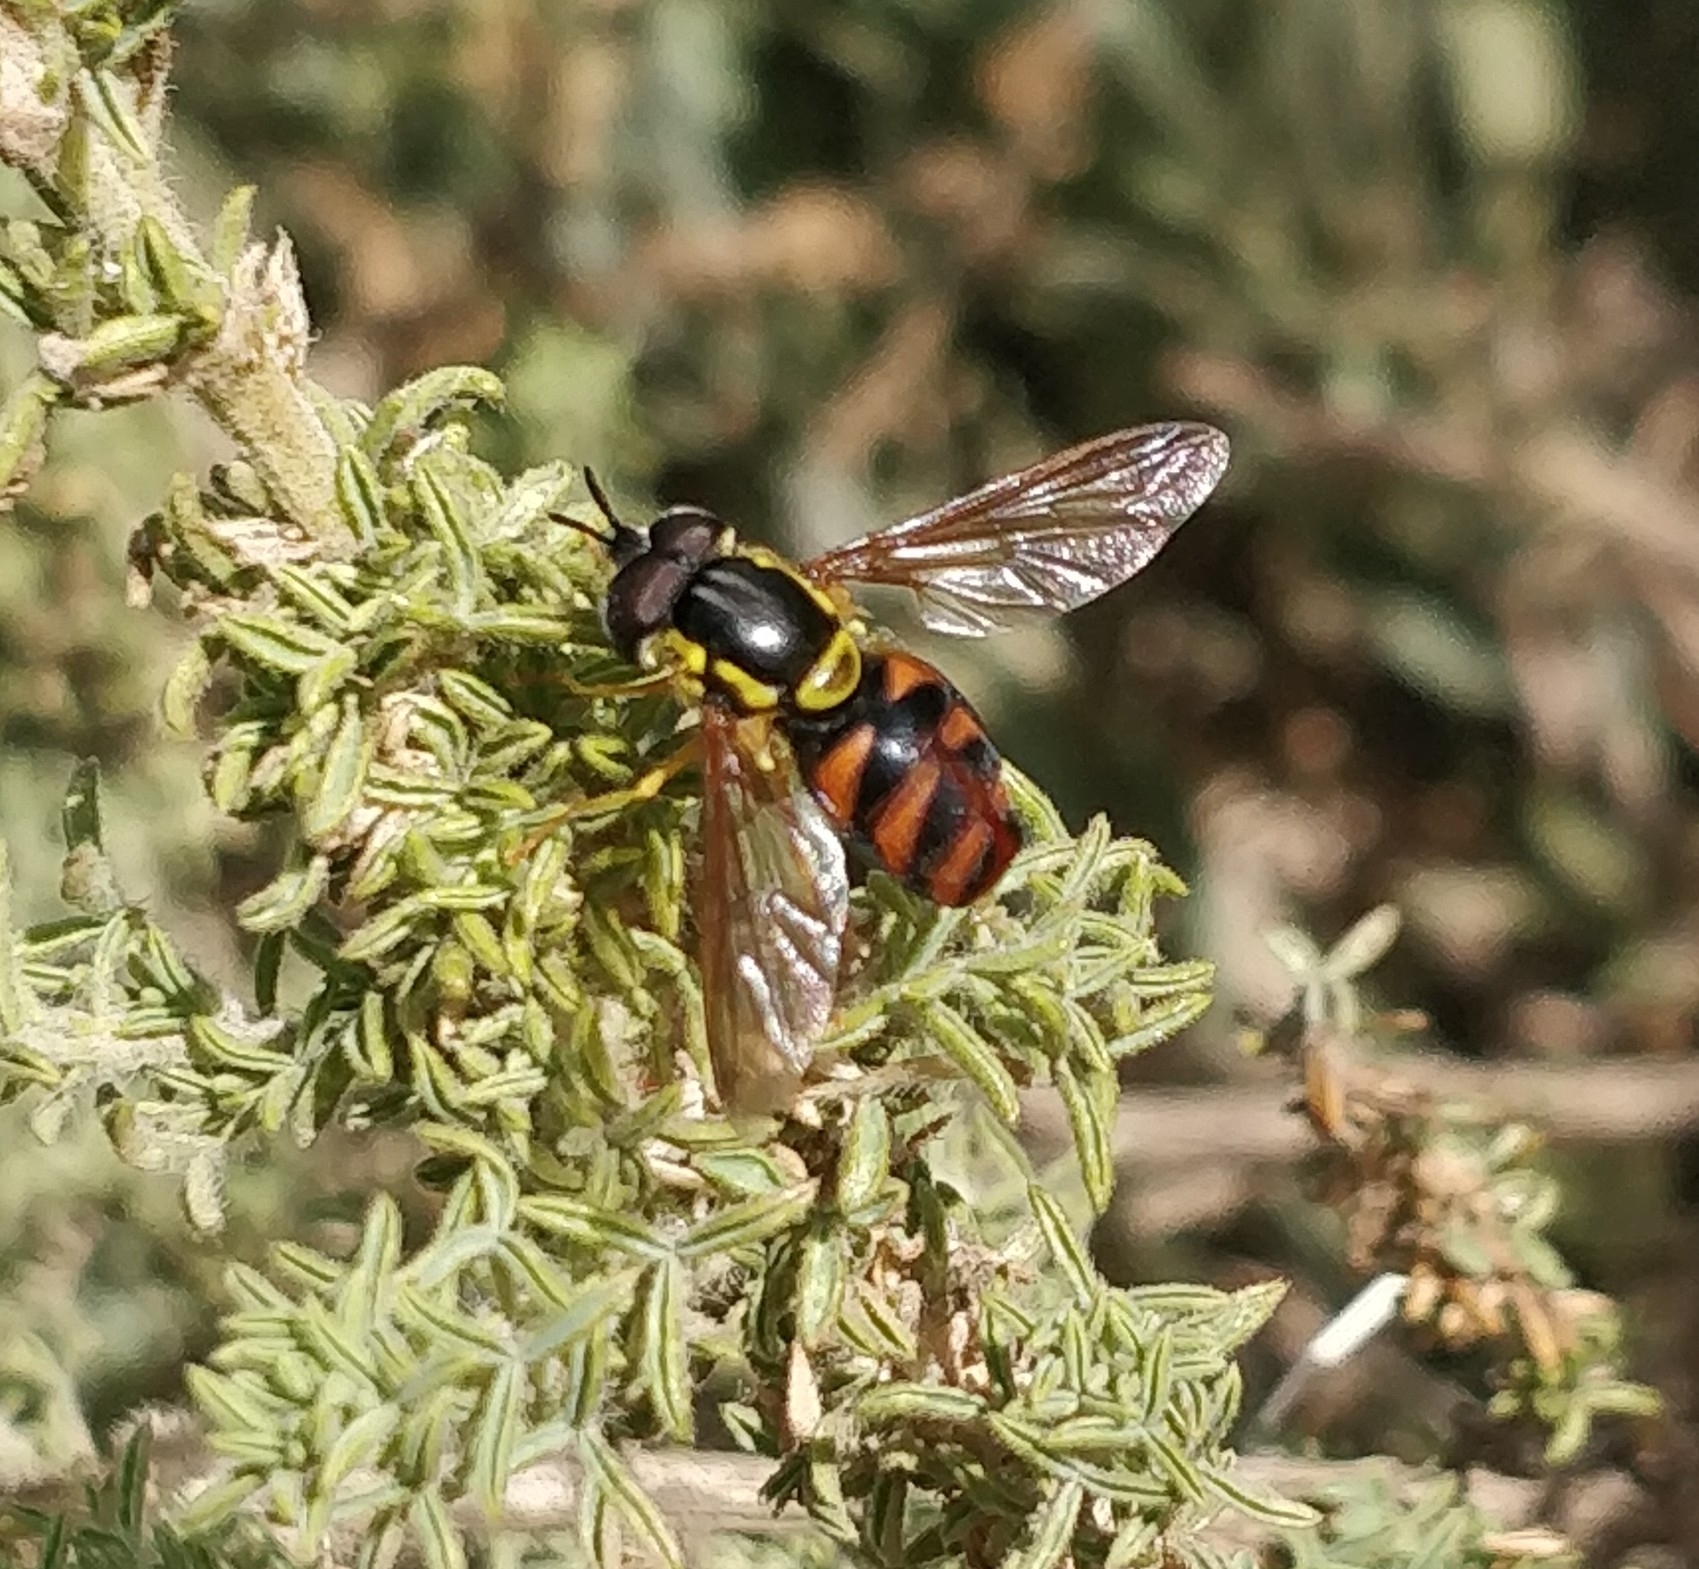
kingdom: Animalia
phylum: Arthropoda
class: Insecta
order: Diptera
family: Syrphidae
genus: Chrysotoxum
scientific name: Chrysotoxum triarcuatum
